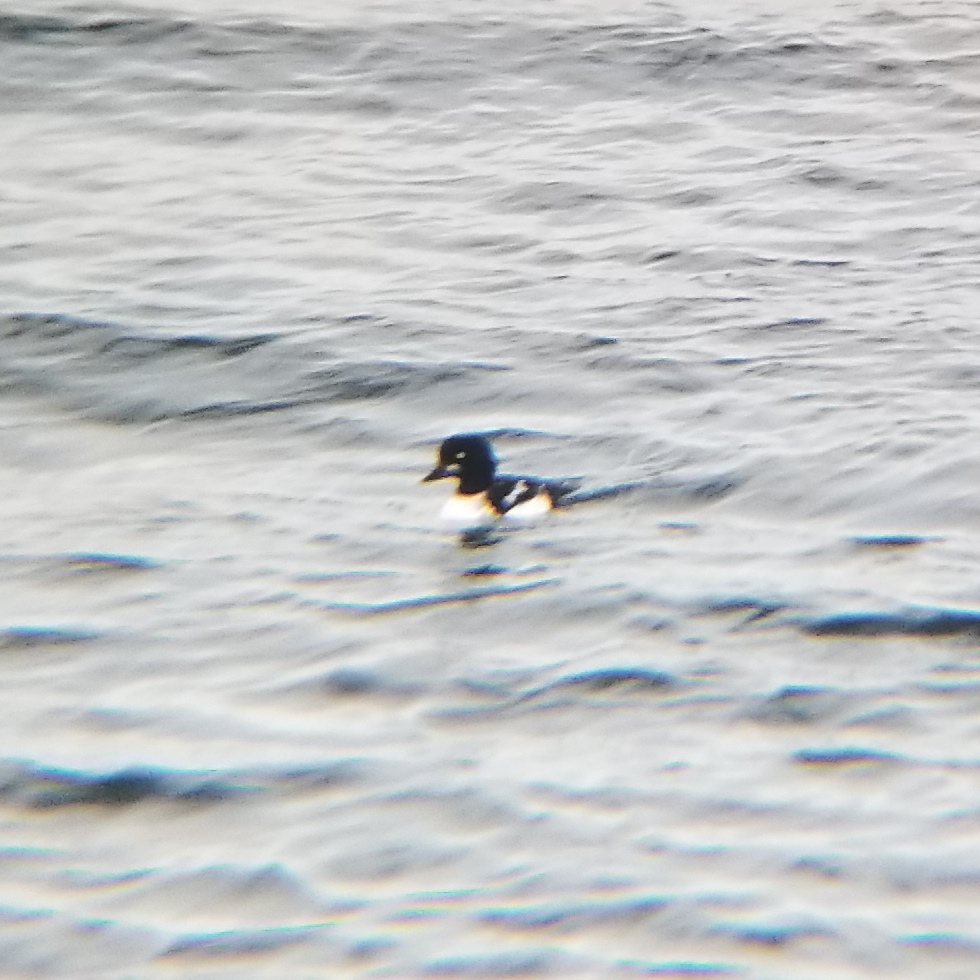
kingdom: Animalia
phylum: Chordata
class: Aves
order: Anseriformes
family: Anatidae
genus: Bucephala
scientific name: Bucephala islandica
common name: Barrow's goldeneye
